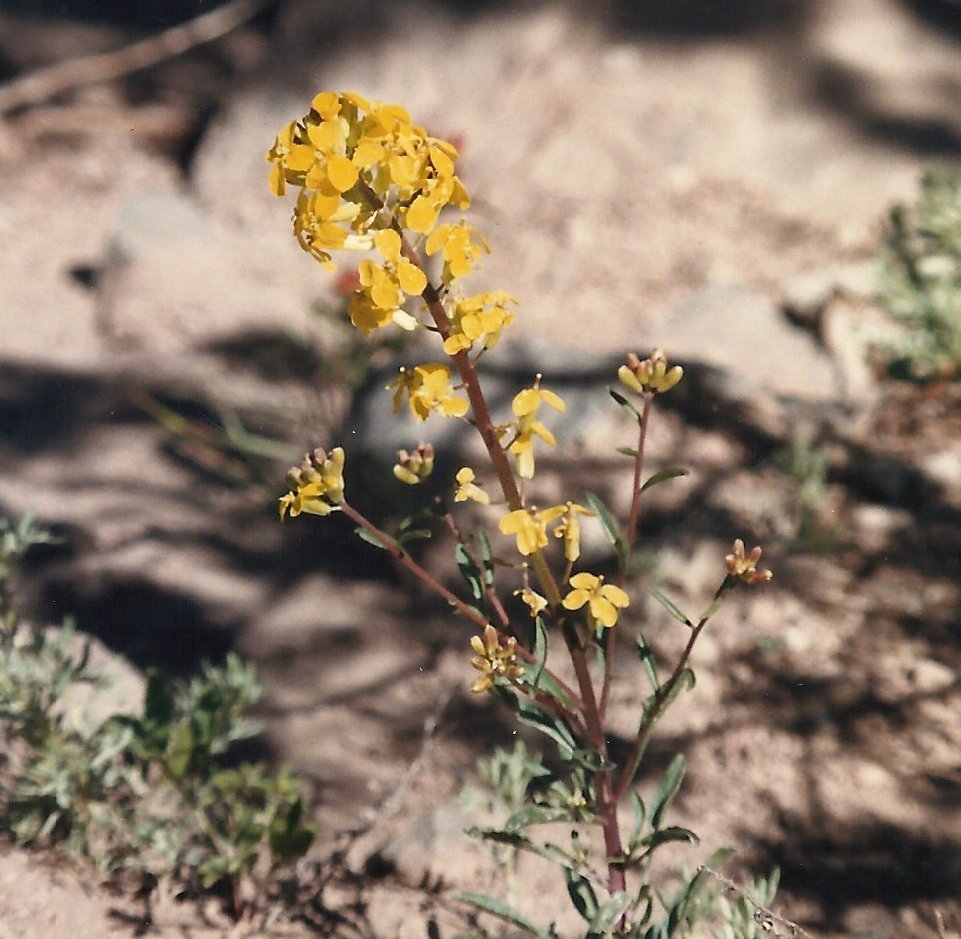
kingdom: Plantae
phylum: Tracheophyta
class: Magnoliopsida
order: Brassicales
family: Brassicaceae
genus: Erysimum
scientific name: Erysimum capitatum
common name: Western wallflower
